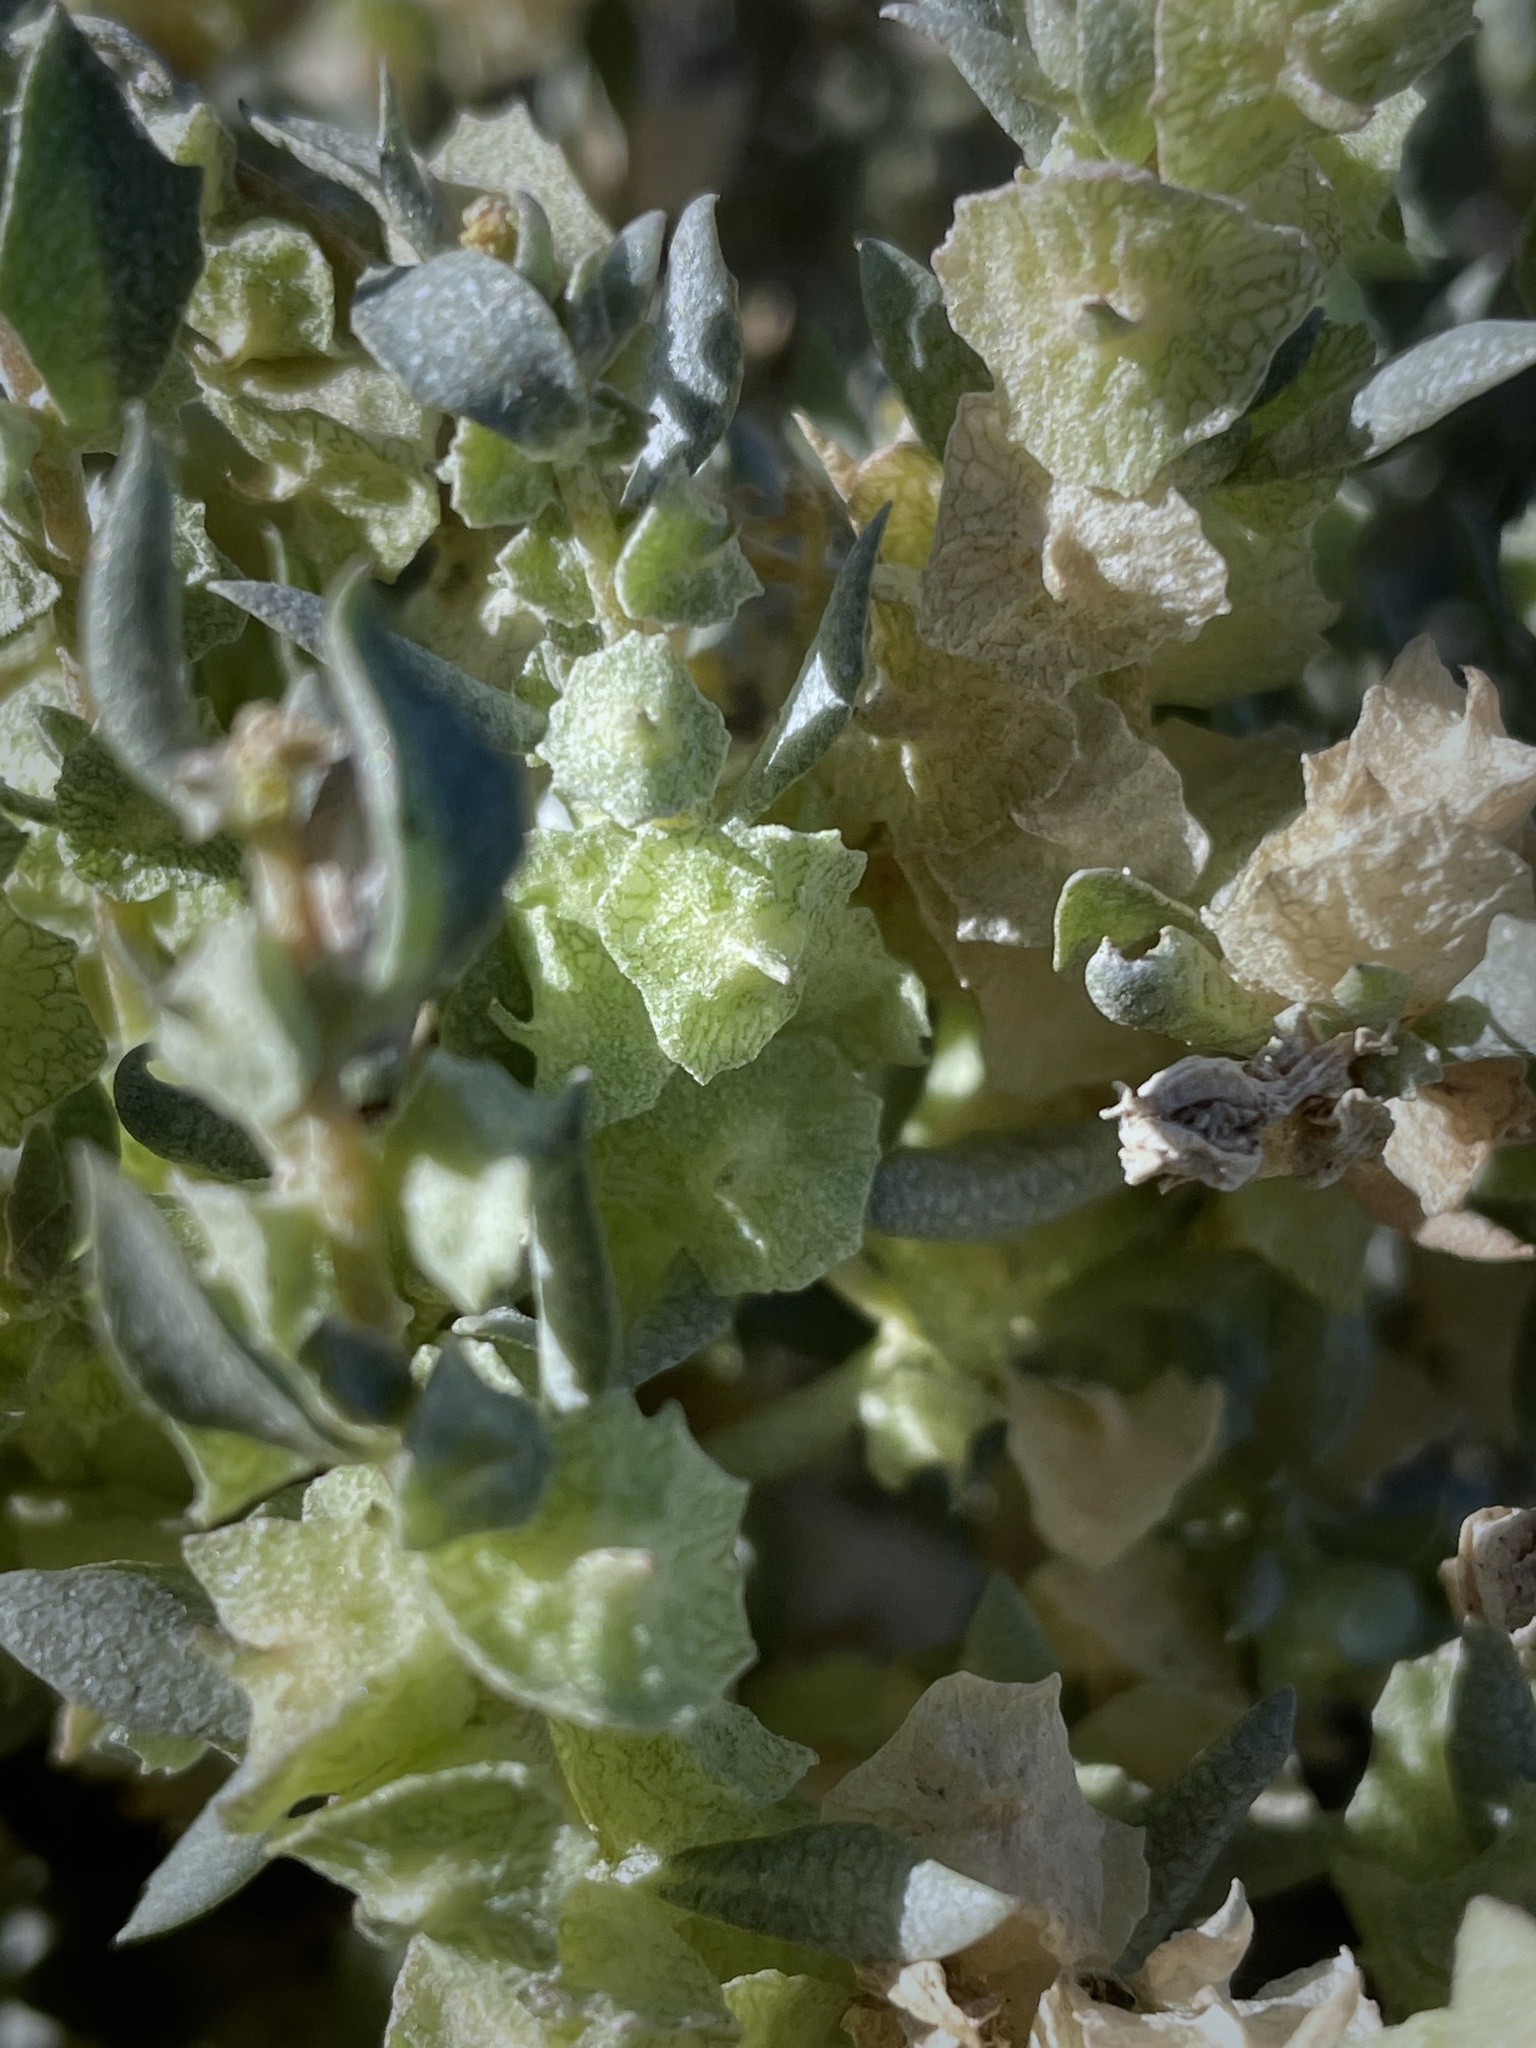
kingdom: Plantae
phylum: Tracheophyta
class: Magnoliopsida
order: Caryophyllales
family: Amaranthaceae
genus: Atriplex
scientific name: Atriplex lindleyi
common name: Lindley's saltbush
